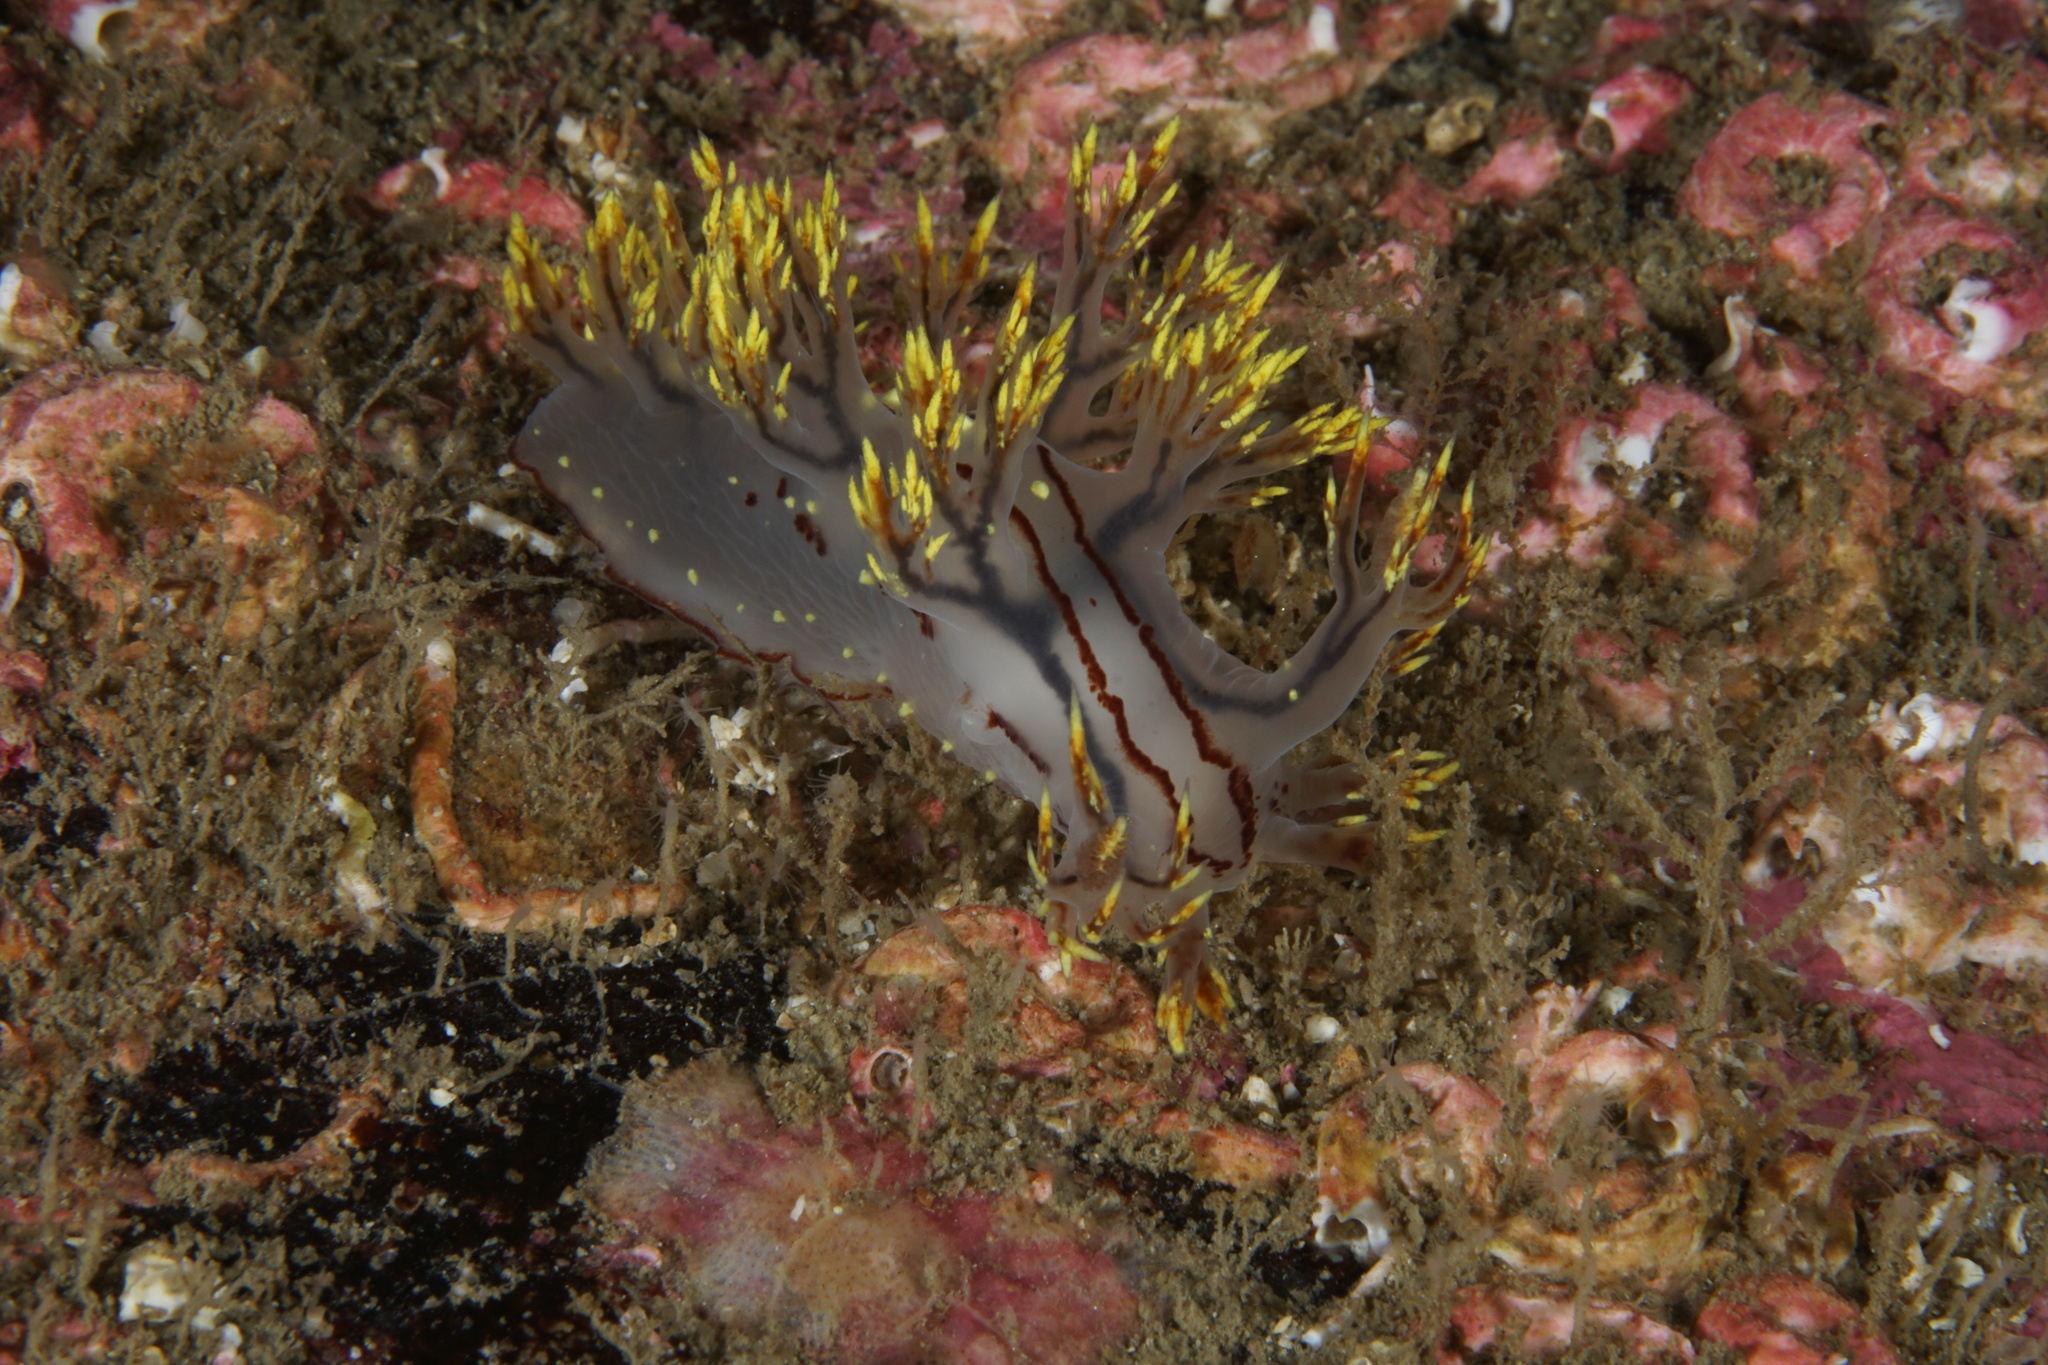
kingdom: Animalia
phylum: Mollusca
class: Gastropoda
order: Nudibranchia
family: Dendronotidae
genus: Dendronotus
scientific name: Dendronotus yrjargul
